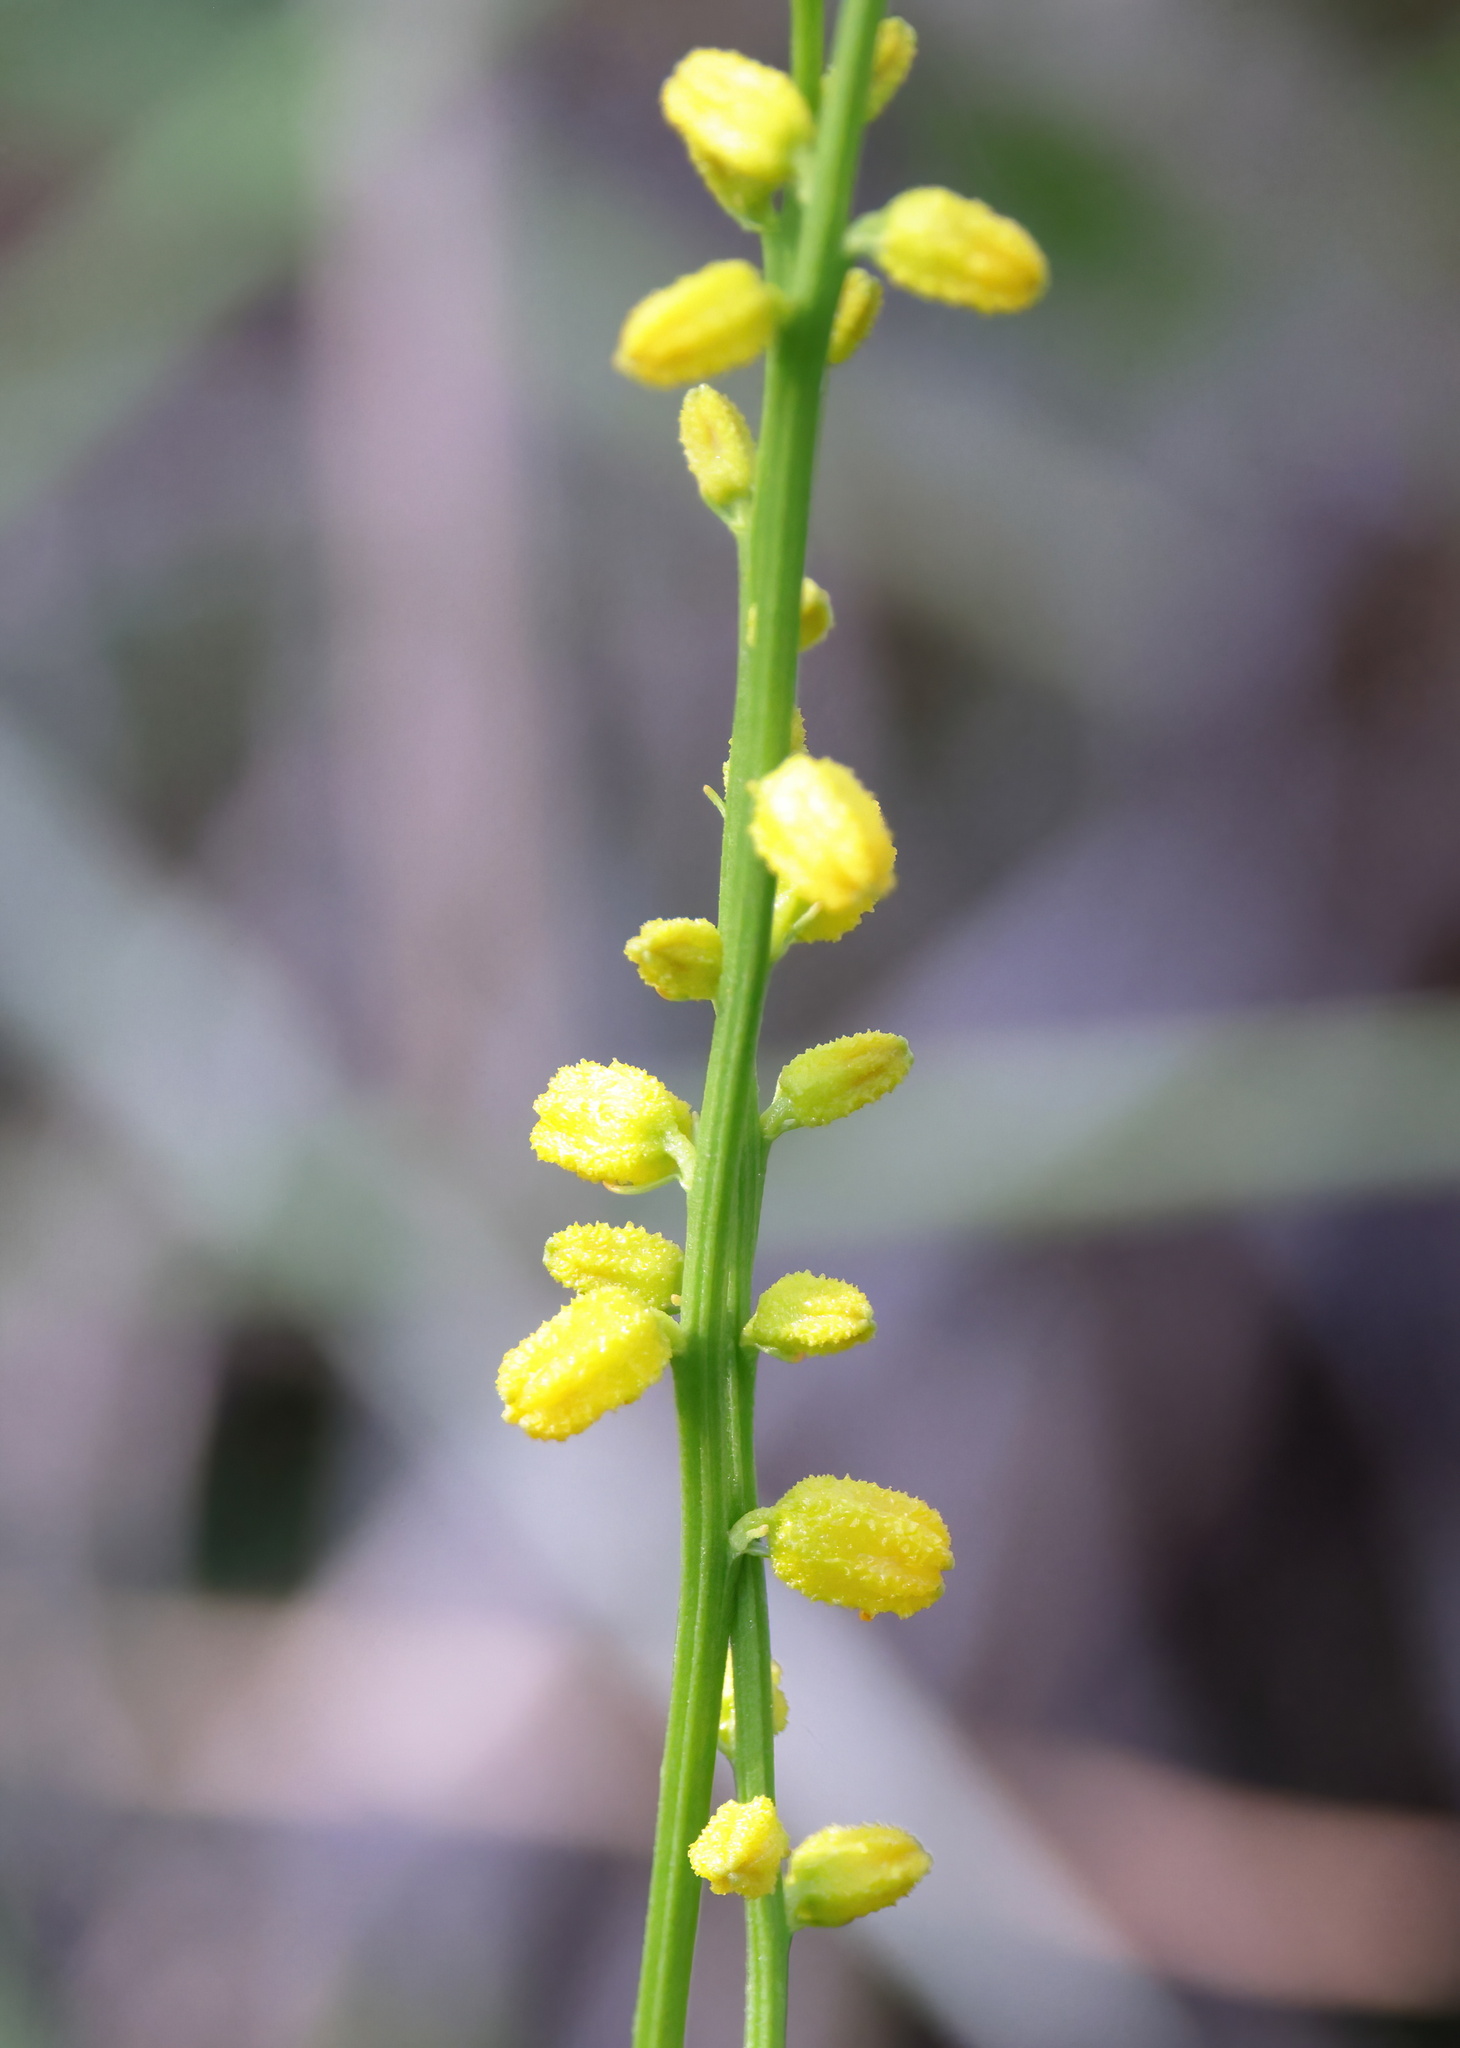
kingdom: Plantae
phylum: Tracheophyta
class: Liliopsida
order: Dioscoreales
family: Nartheciaceae
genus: Aletris
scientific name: Aletris aurea
